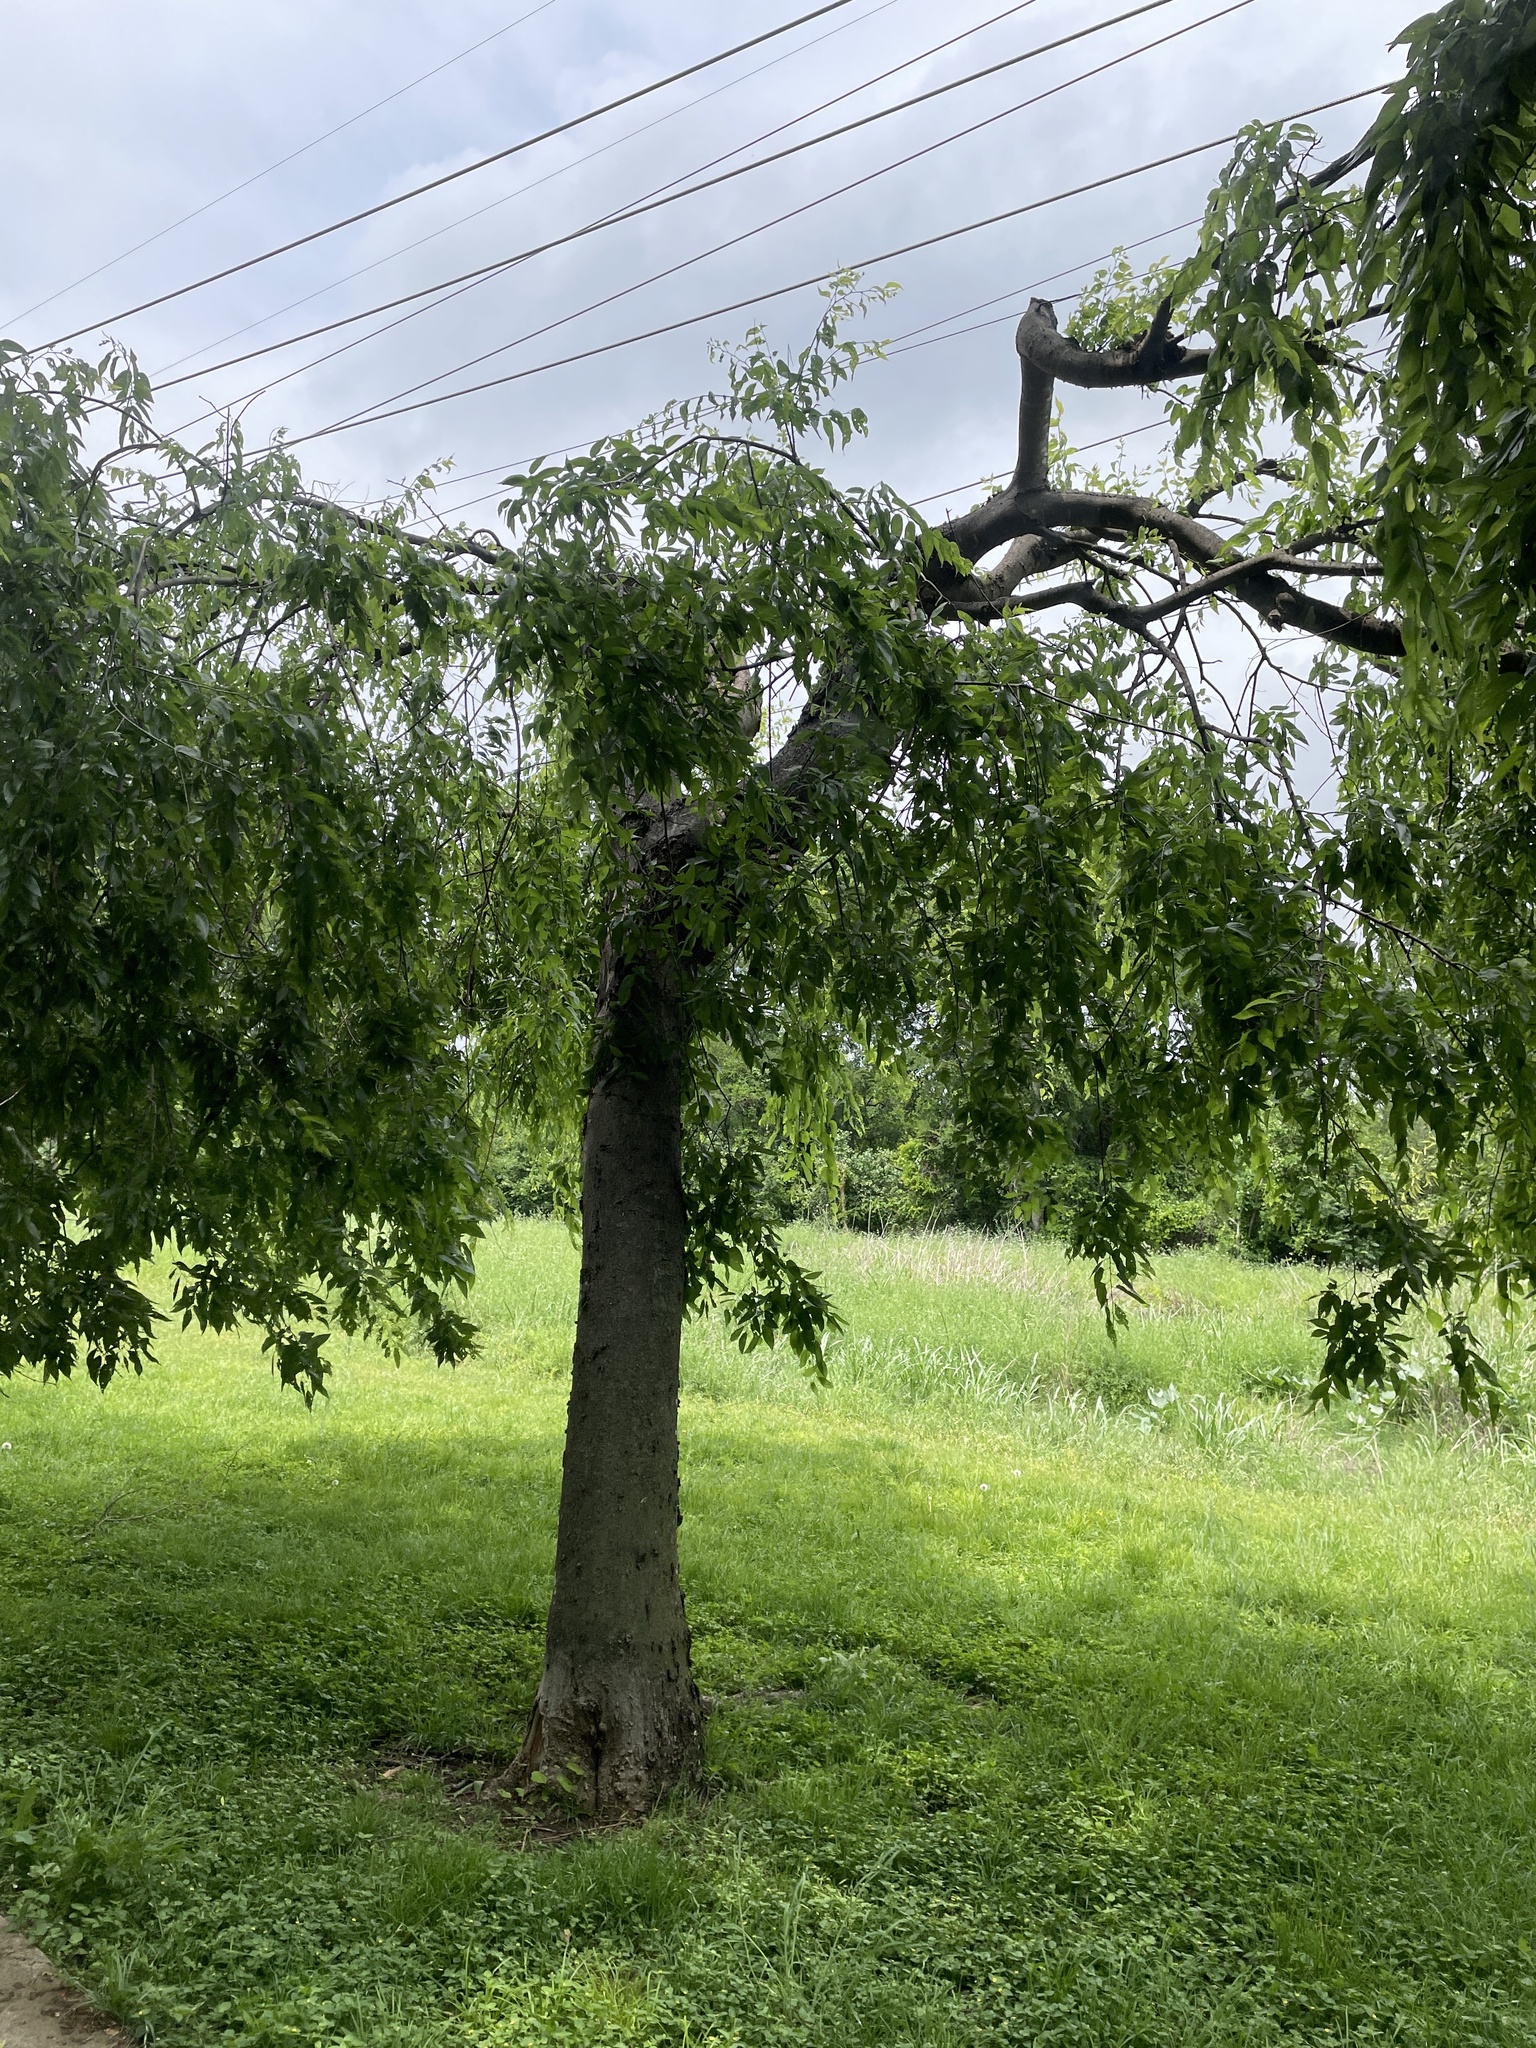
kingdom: Plantae
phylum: Tracheophyta
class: Magnoliopsida
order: Rosales
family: Cannabaceae
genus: Celtis
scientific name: Celtis laevigata
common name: Sugarberry
